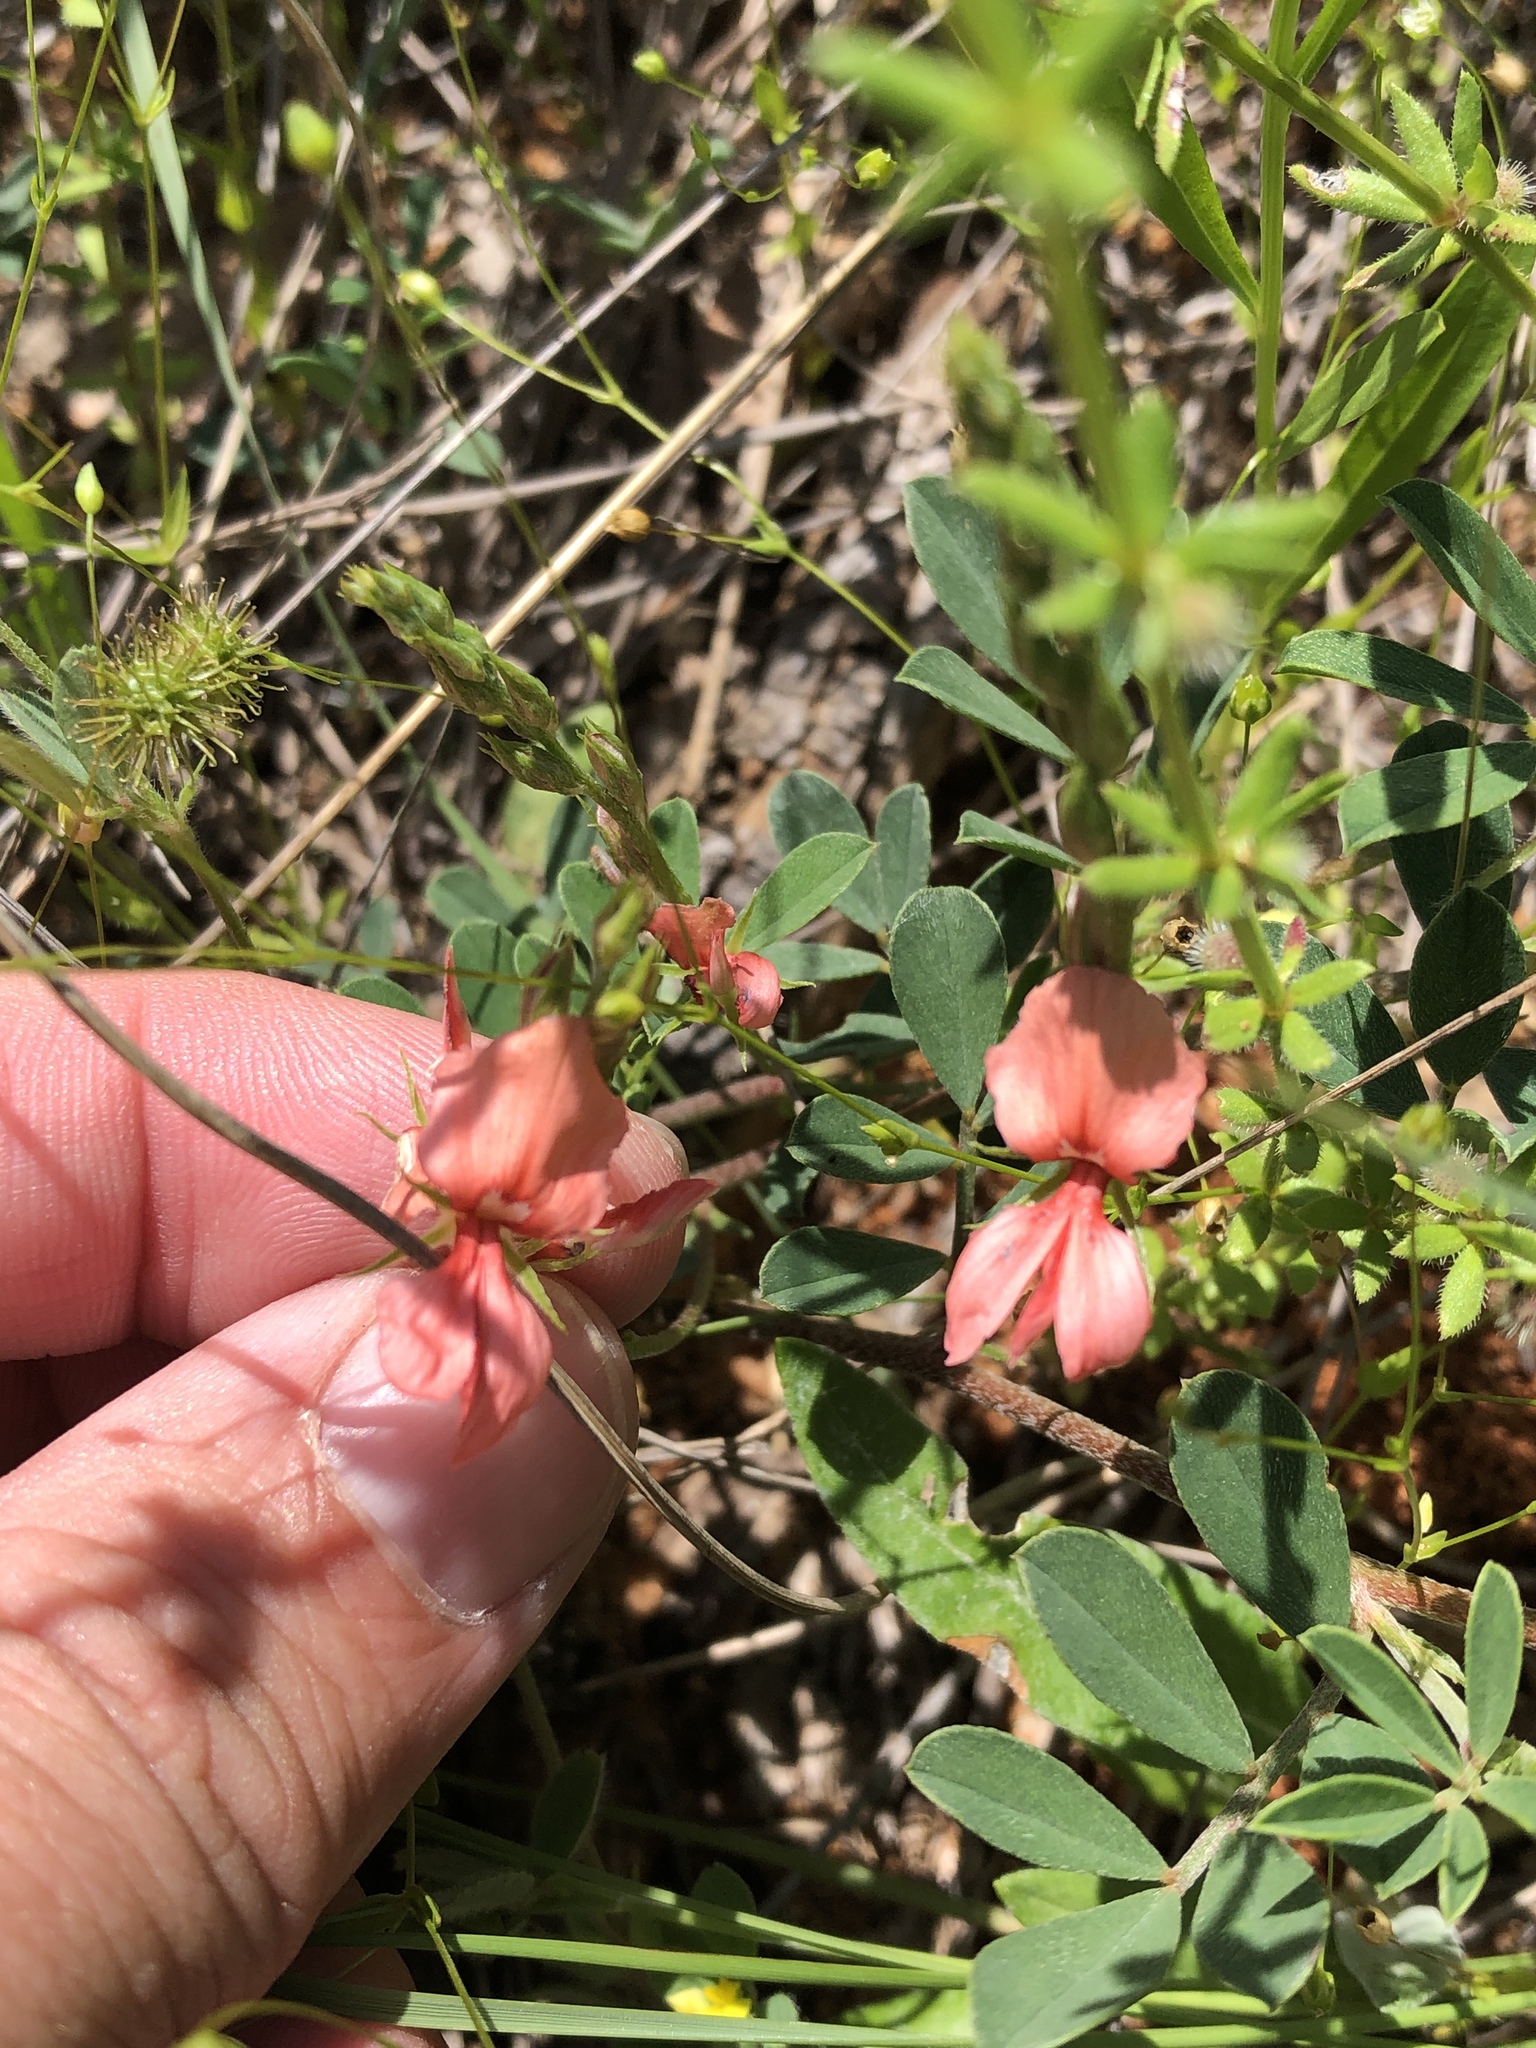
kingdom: Plantae
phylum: Tracheophyta
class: Magnoliopsida
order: Fabales
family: Fabaceae
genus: Indigofera
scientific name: Indigofera miniata
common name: Coast indigo
